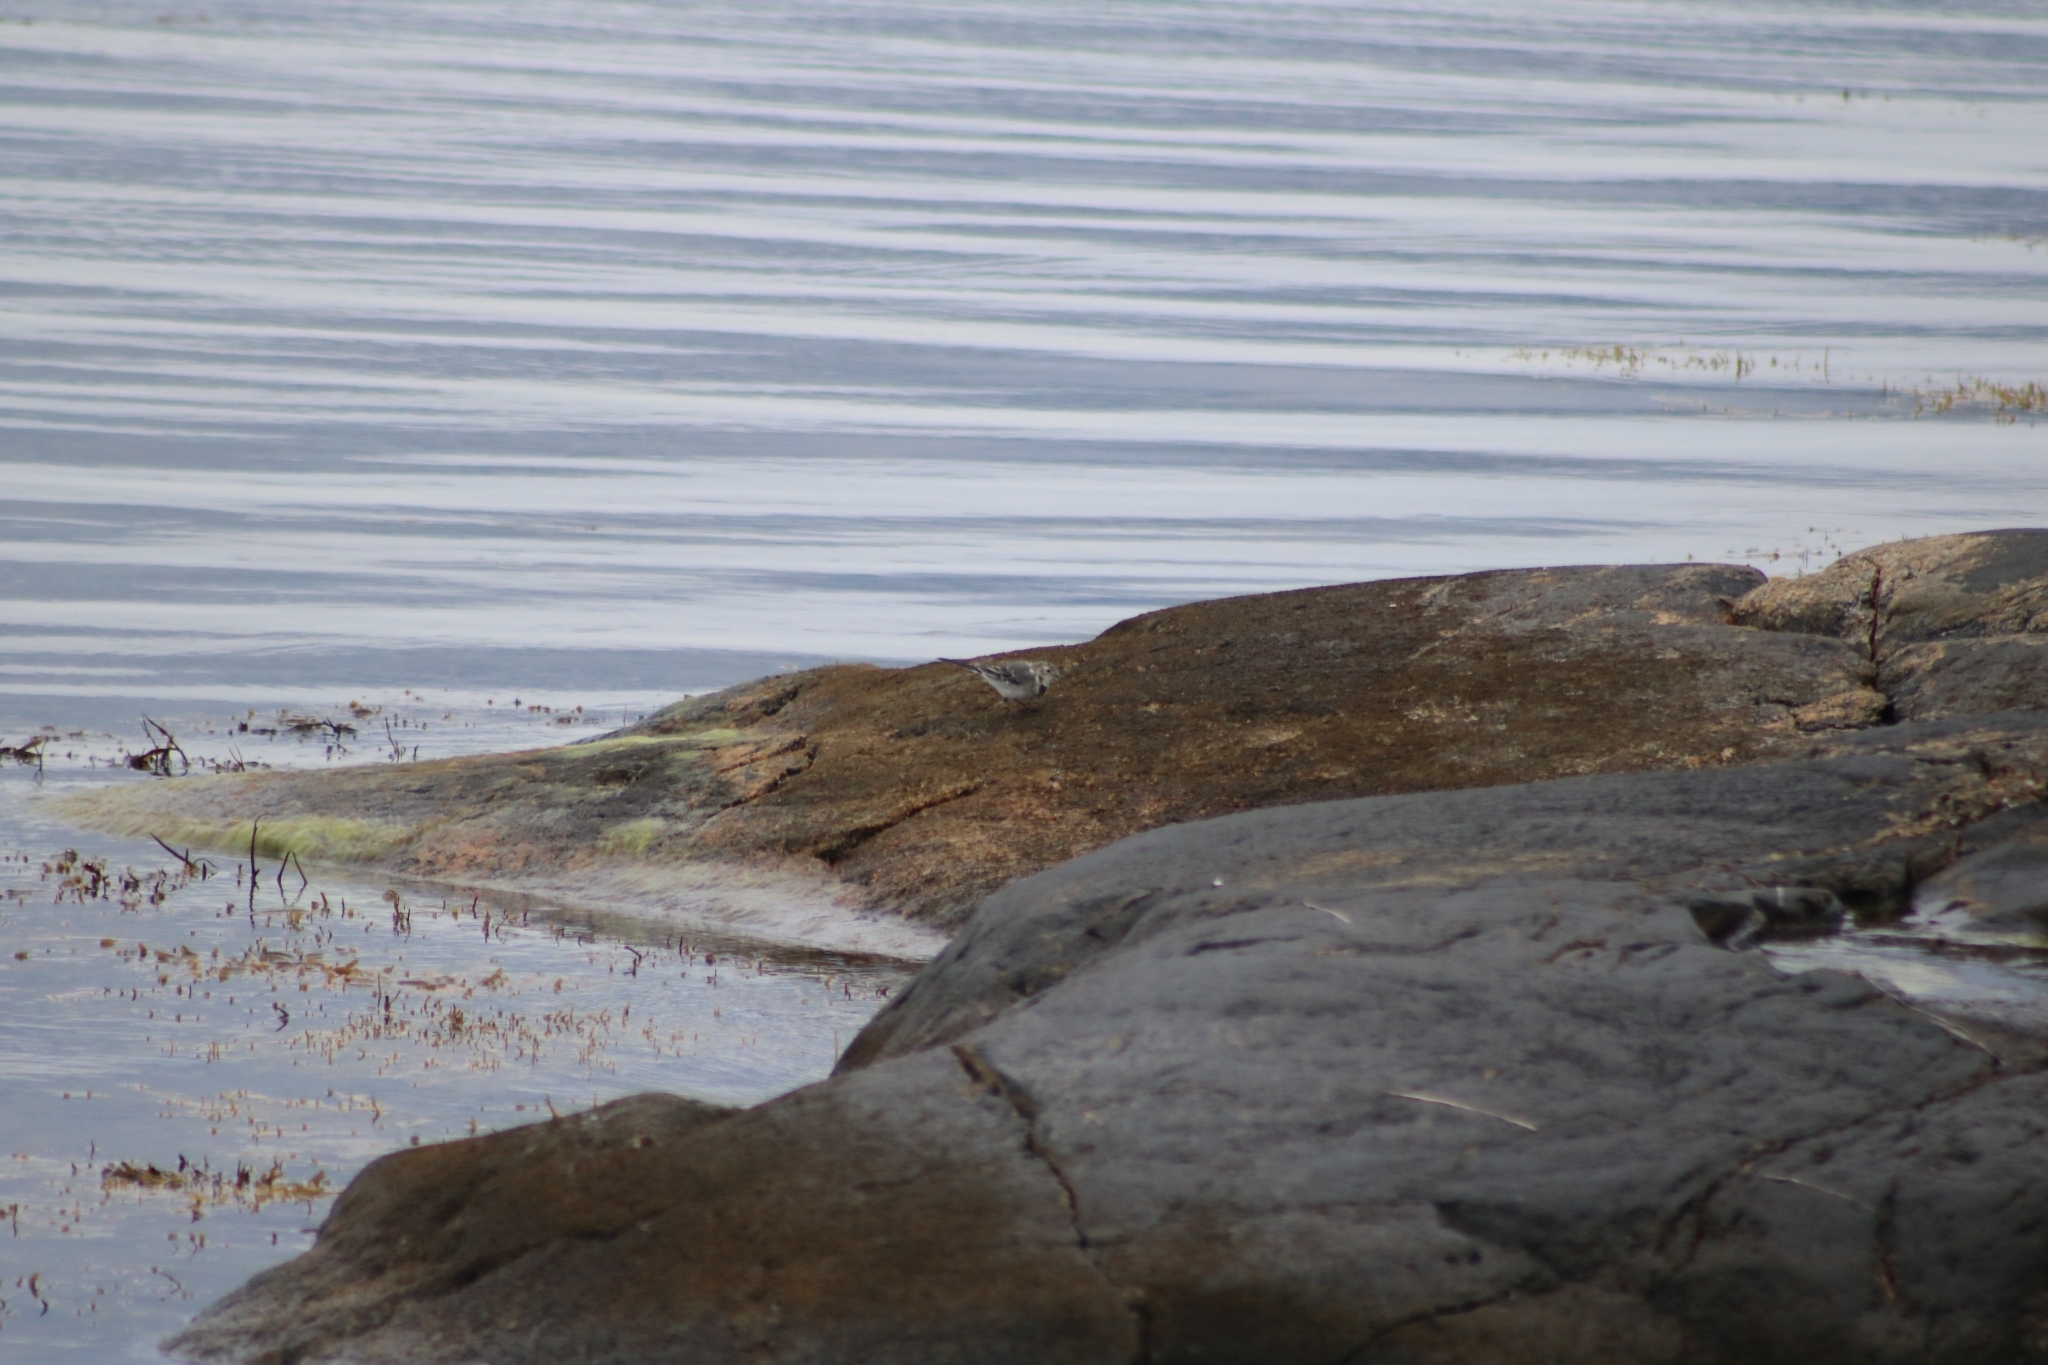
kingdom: Animalia
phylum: Chordata
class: Aves
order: Passeriformes
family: Motacillidae
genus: Motacilla
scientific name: Motacilla alba
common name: White wagtail
